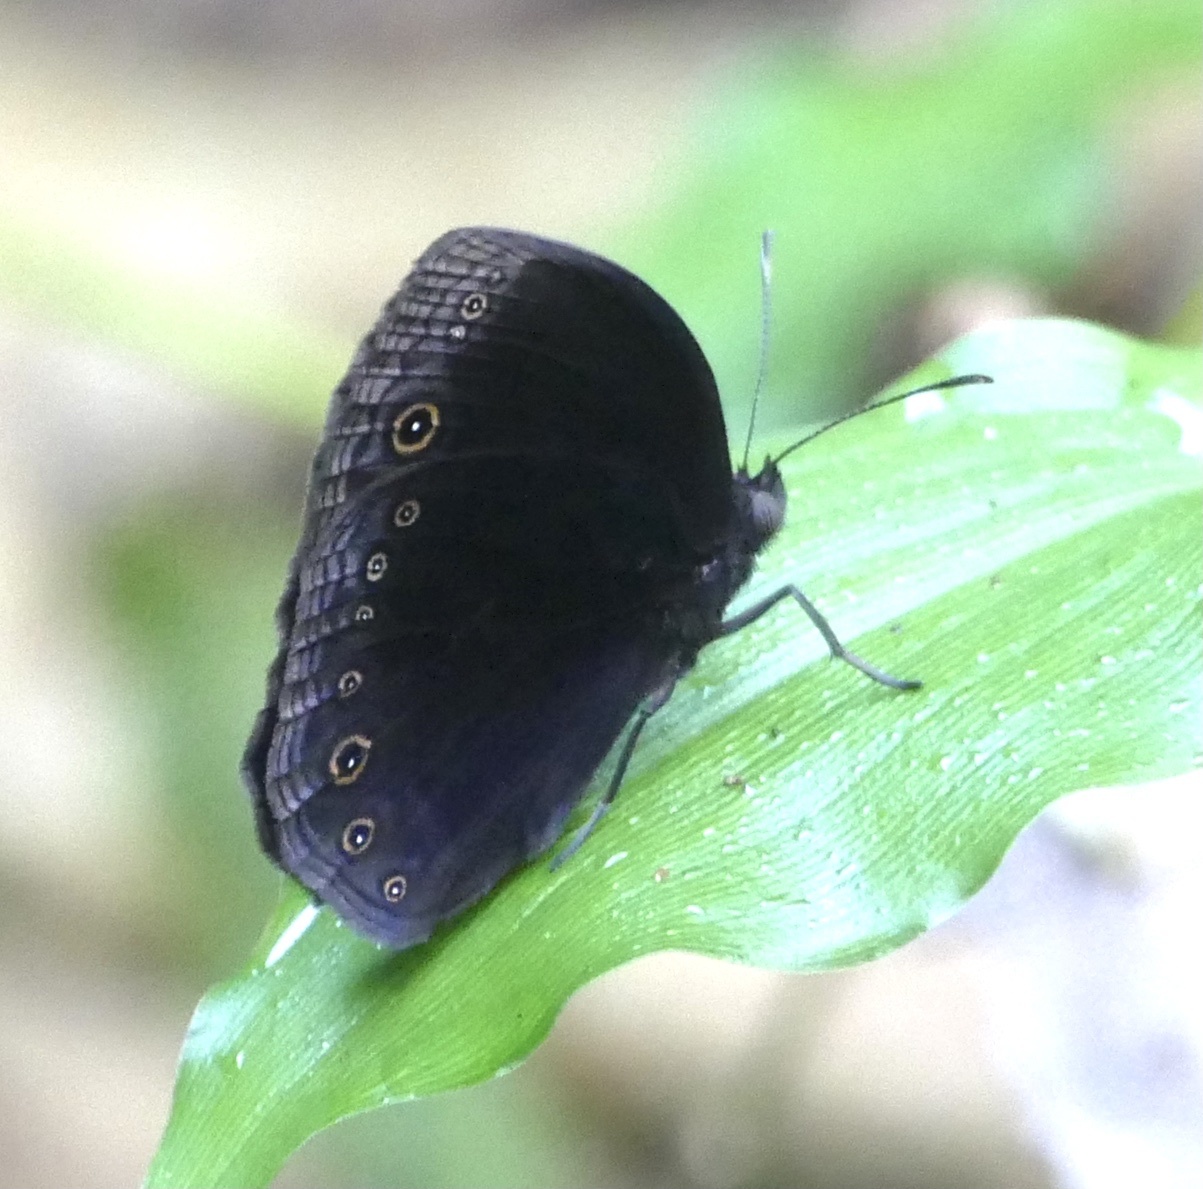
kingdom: Animalia
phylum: Arthropoda
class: Insecta
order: Lepidoptera
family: Nymphalidae
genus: Mycalesis
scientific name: Mycalesis funebris
